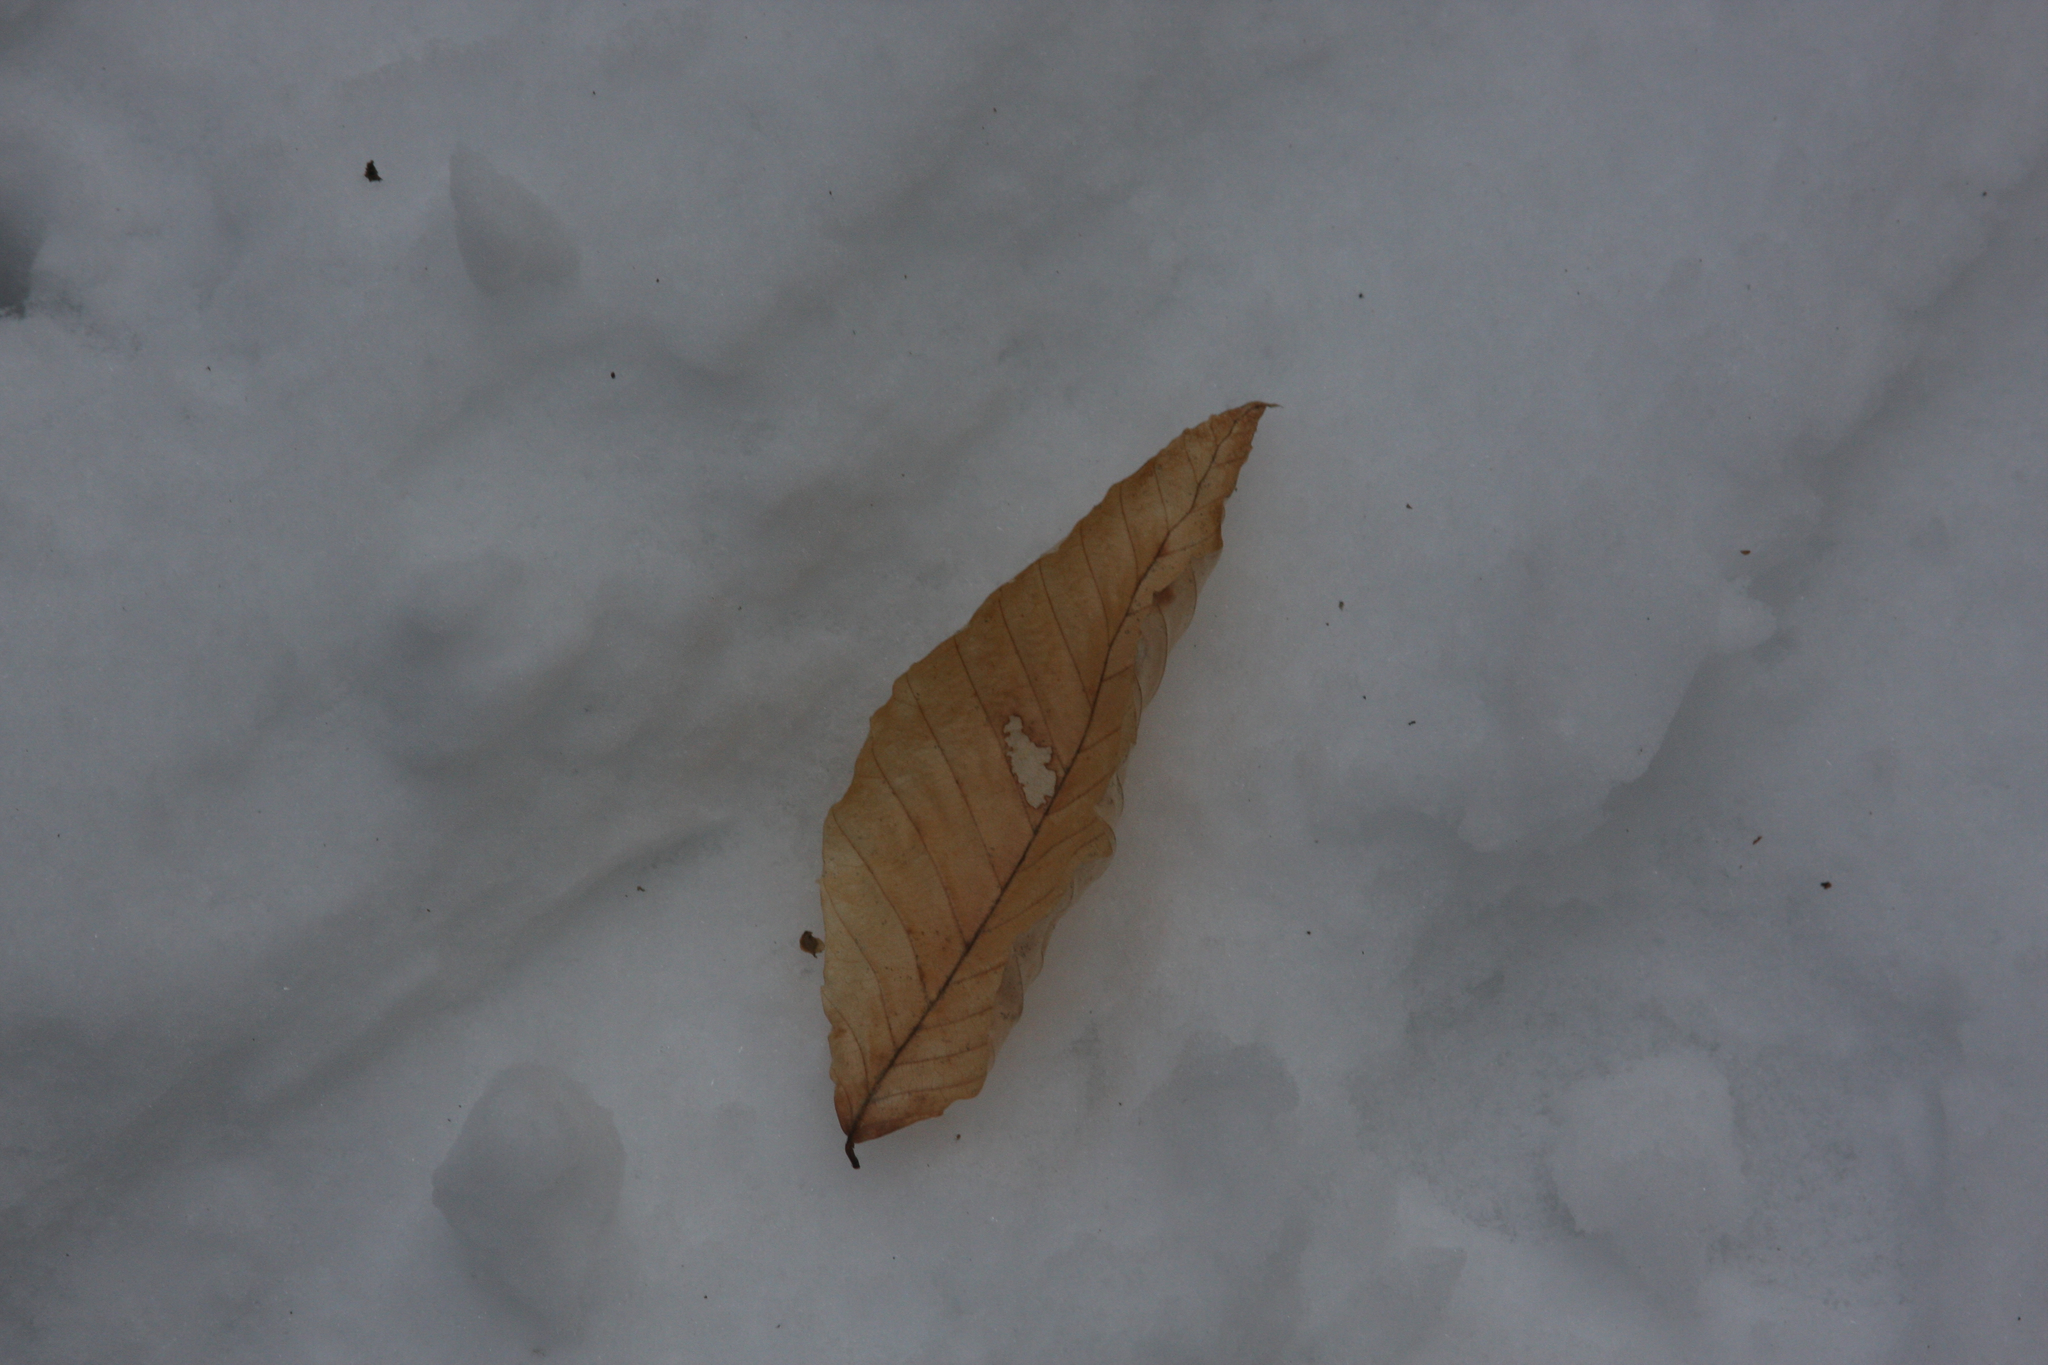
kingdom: Plantae
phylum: Tracheophyta
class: Magnoliopsida
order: Fagales
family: Fagaceae
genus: Fagus
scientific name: Fagus grandifolia
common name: American beech
